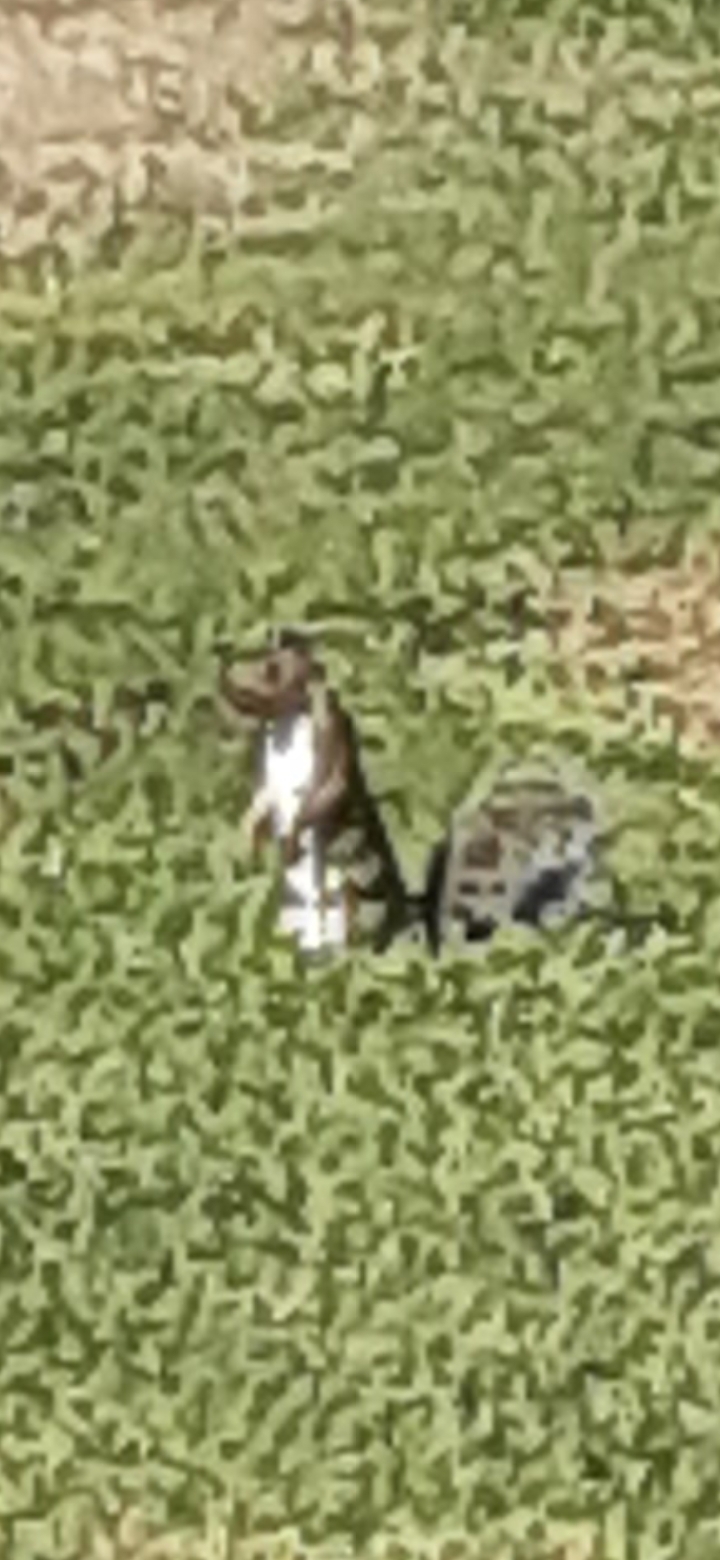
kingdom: Animalia
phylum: Chordata
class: Mammalia
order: Rodentia
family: Sciuridae
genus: Sciurus
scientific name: Sciurus carolinensis
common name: Eastern gray squirrel
